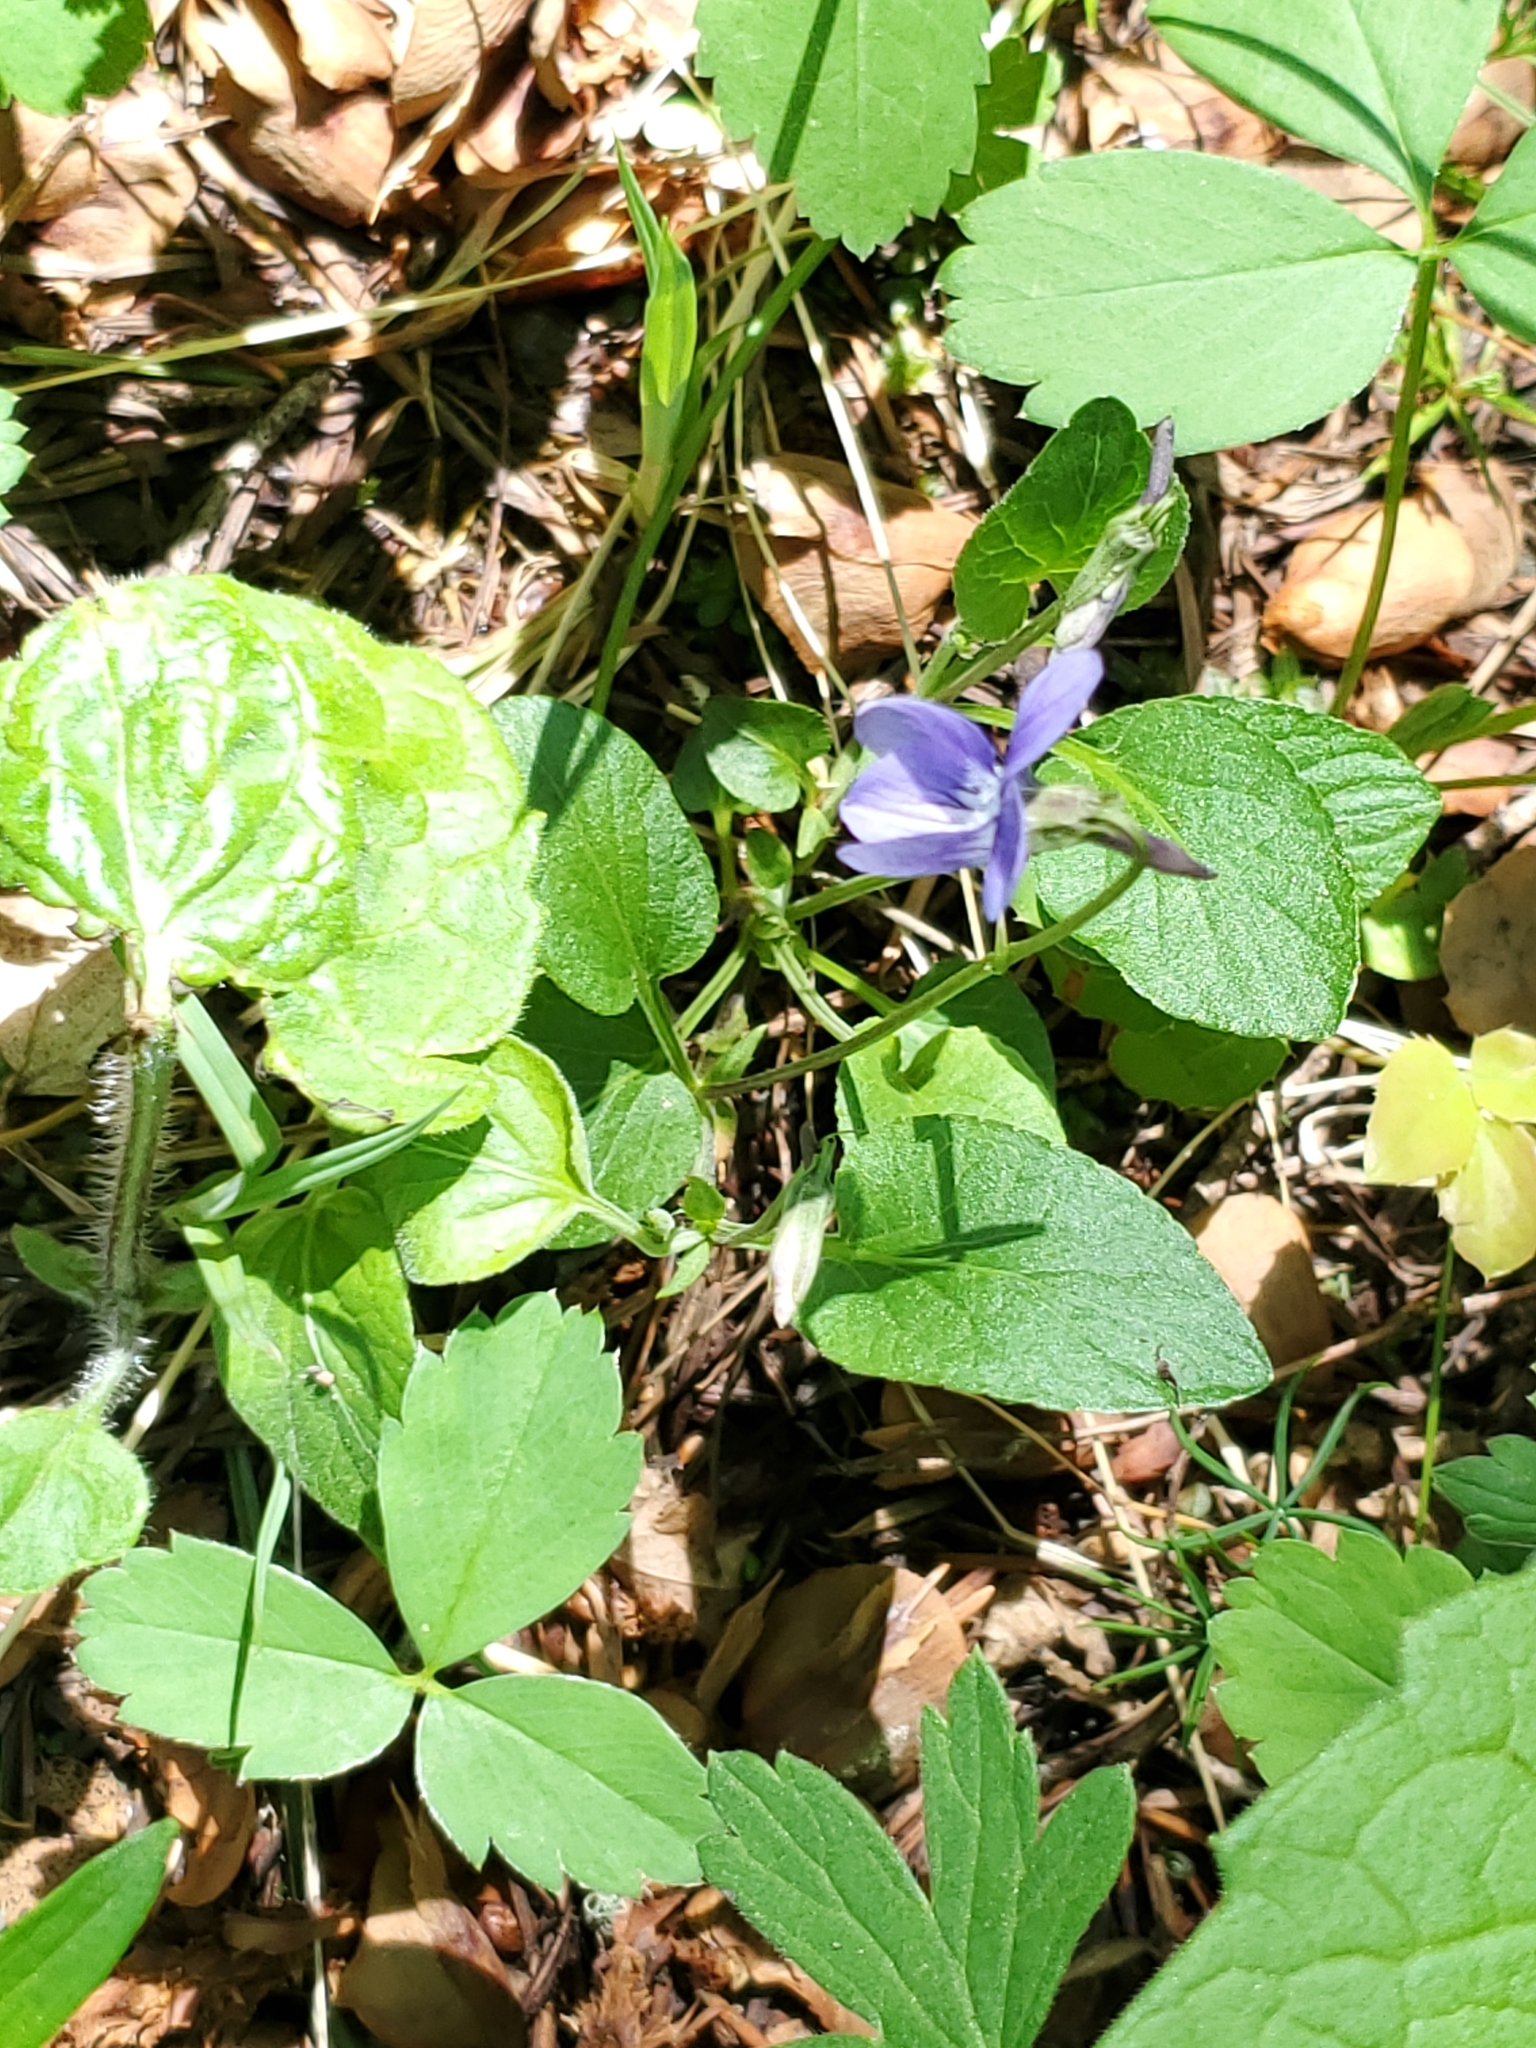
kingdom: Plantae
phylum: Tracheophyta
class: Magnoliopsida
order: Malpighiales
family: Violaceae
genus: Viola
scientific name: Viola adunca
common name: Sand violet
